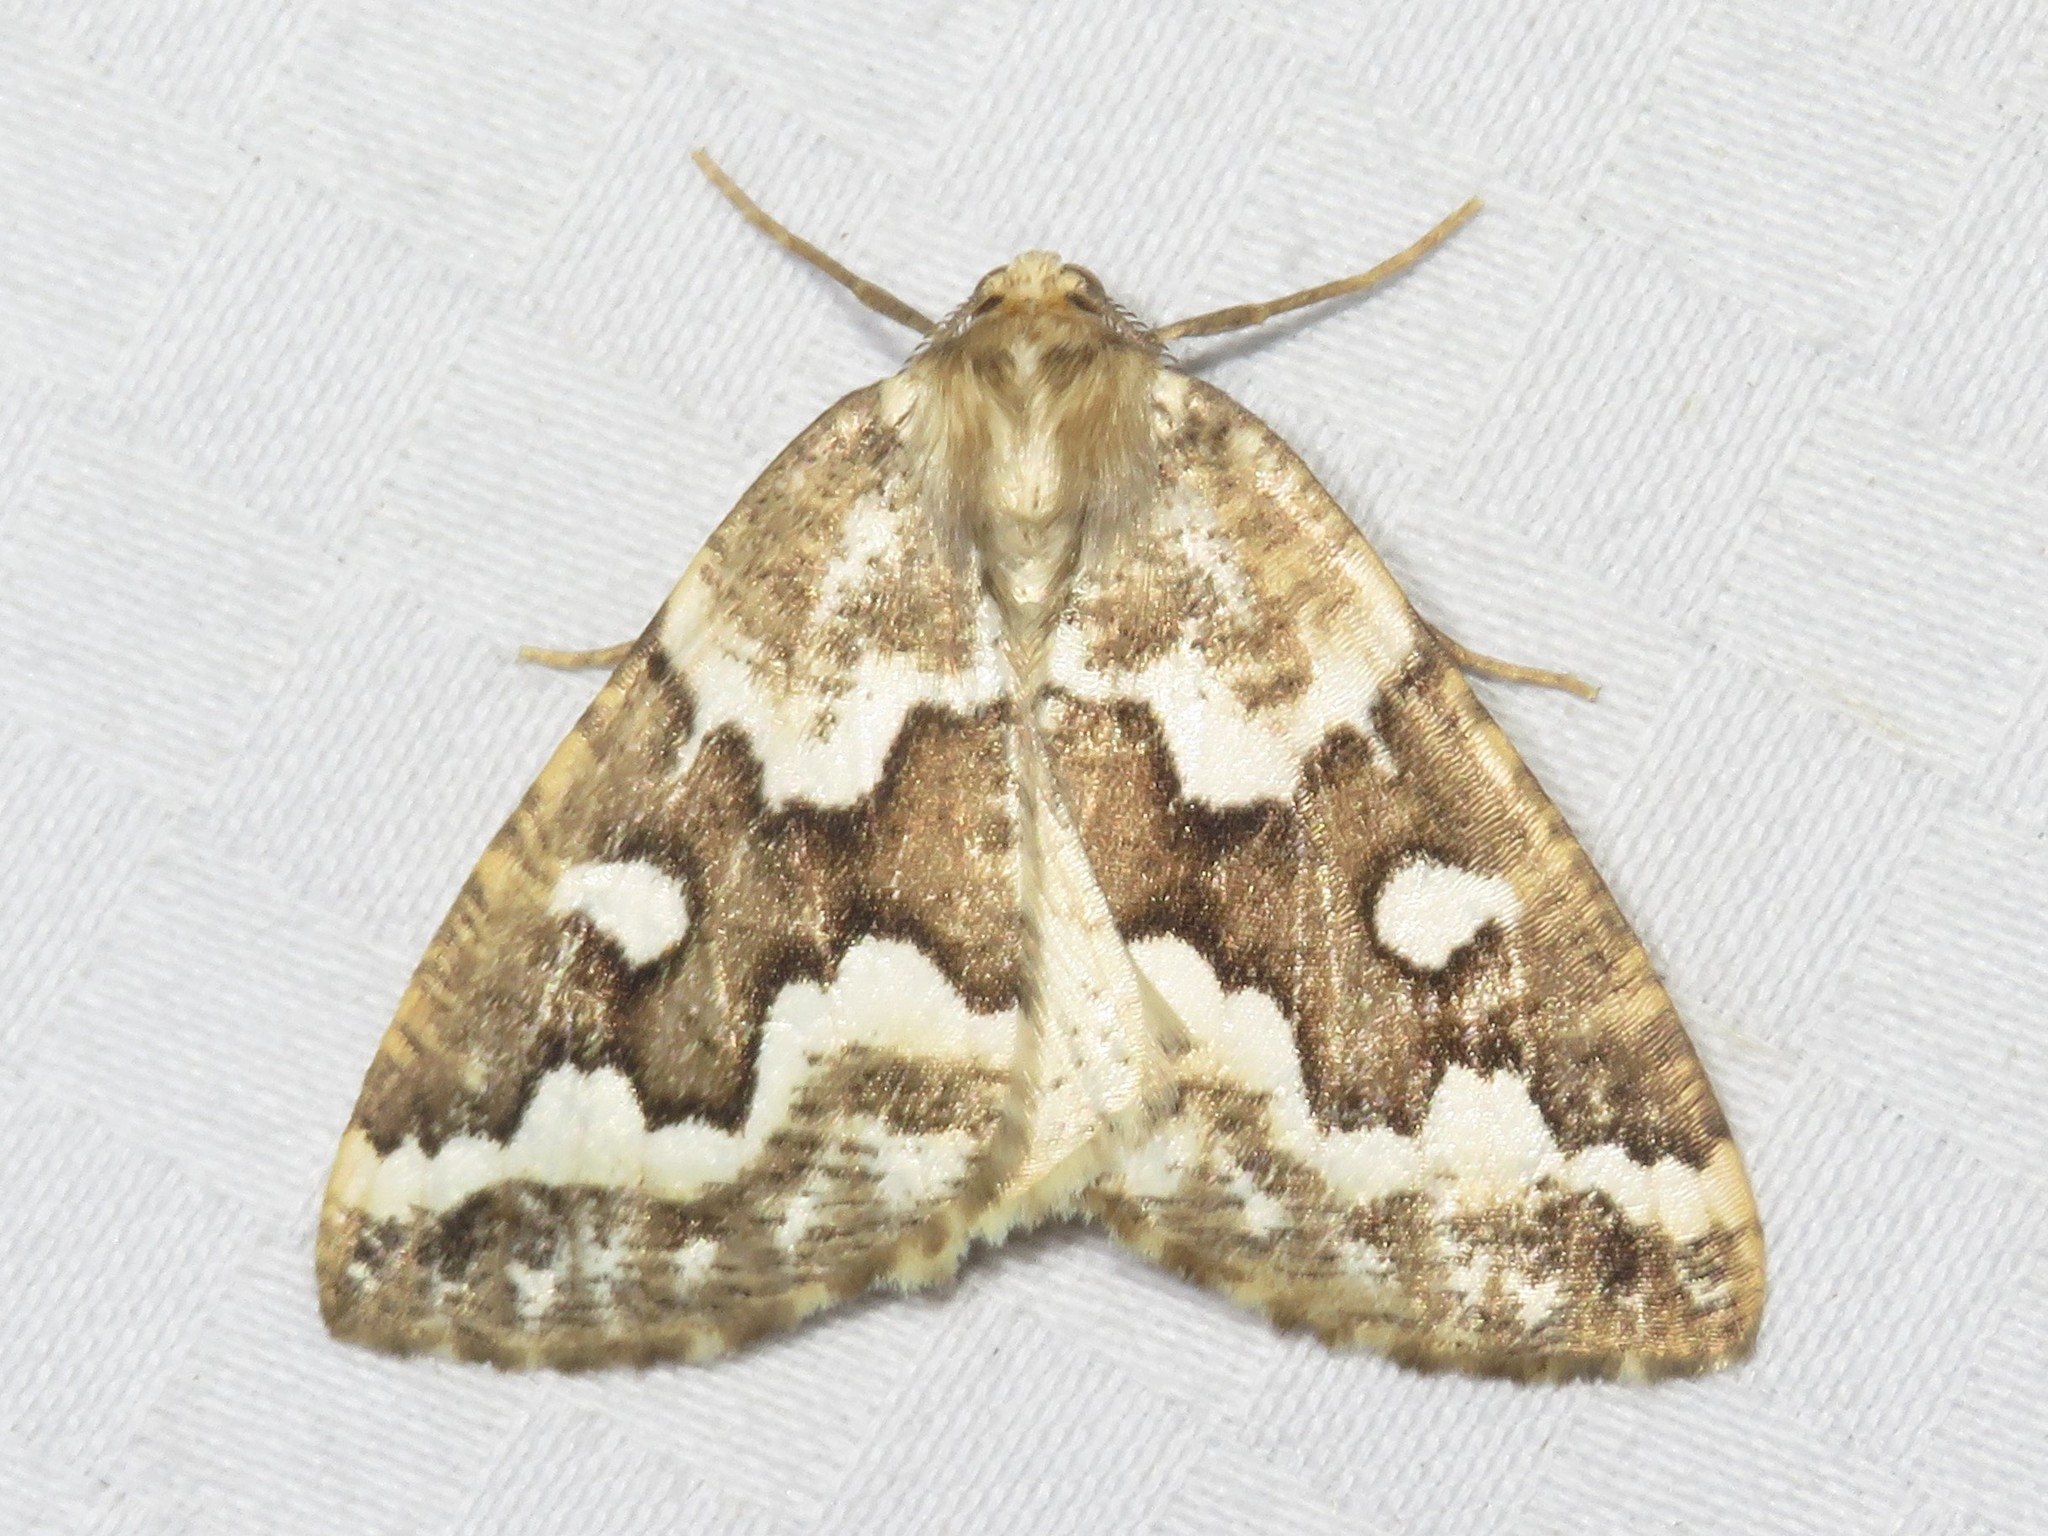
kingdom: Animalia
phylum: Arthropoda
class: Insecta
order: Lepidoptera
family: Geometridae
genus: Caripeta
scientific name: Caripeta divisata
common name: Gray spruce looper
